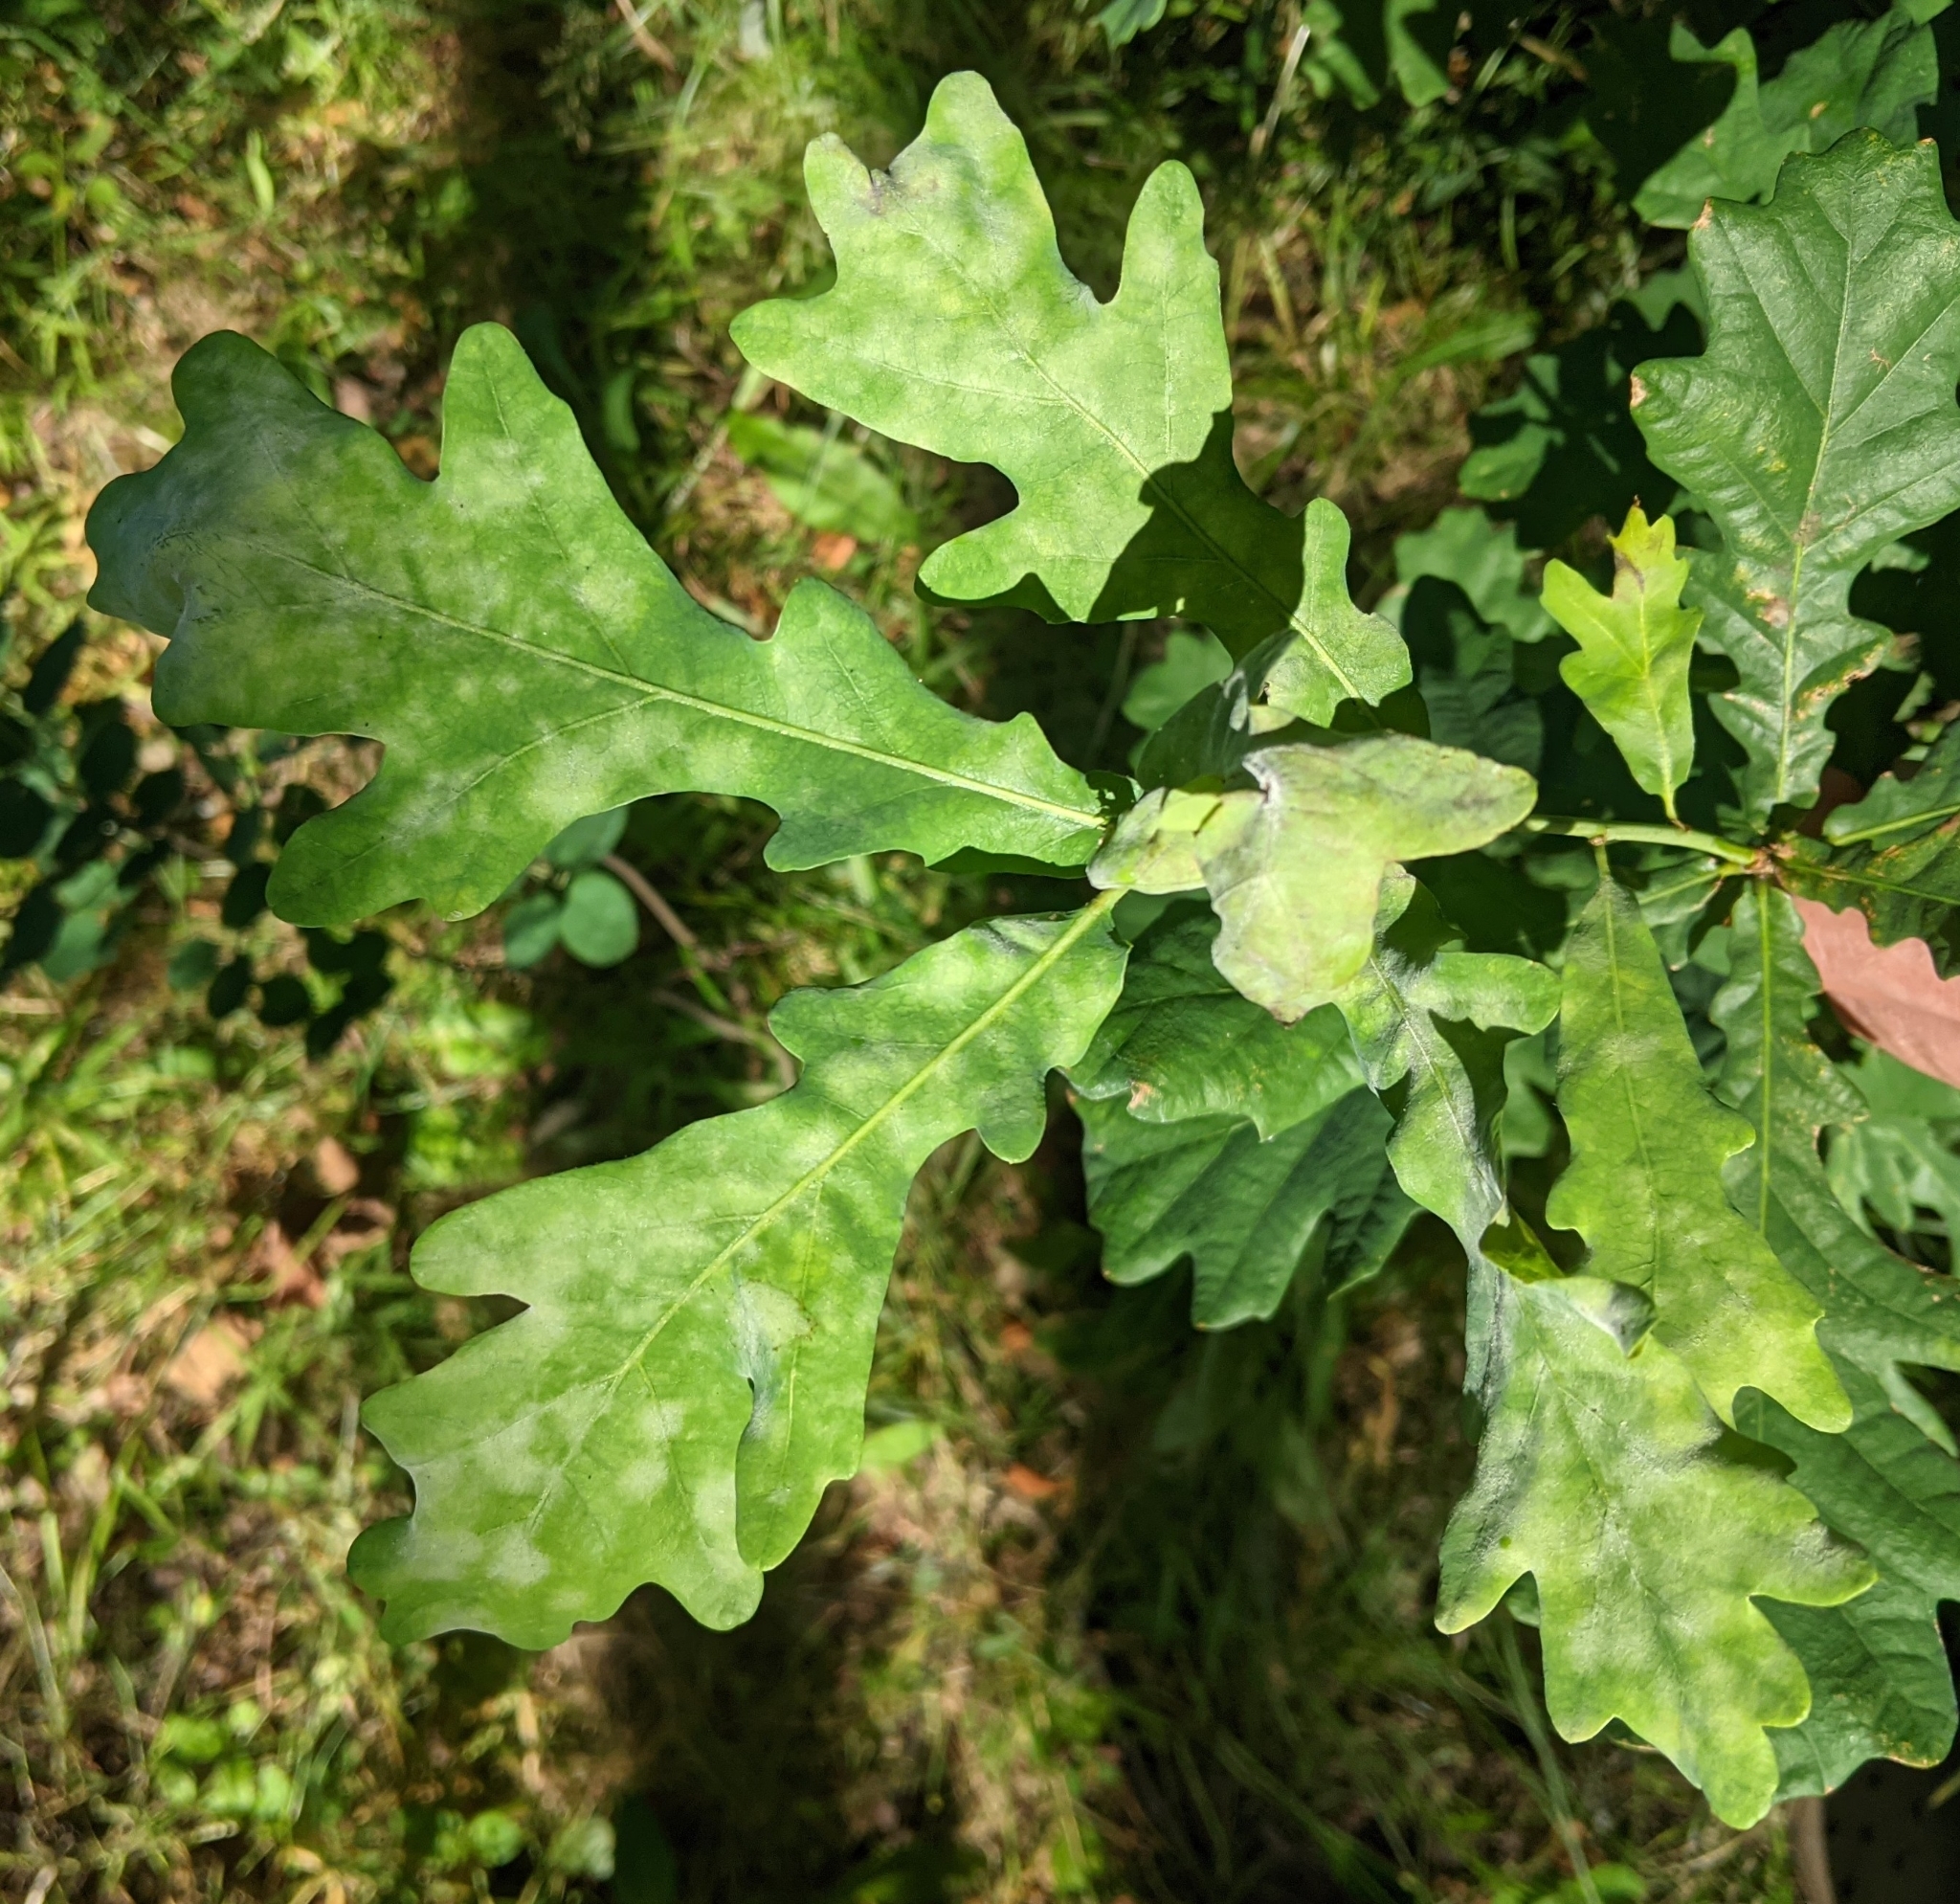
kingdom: Fungi
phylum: Ascomycota
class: Leotiomycetes
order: Helotiales
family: Erysiphaceae
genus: Erysiphe
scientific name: Erysiphe alphitoides
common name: Oak mildew
